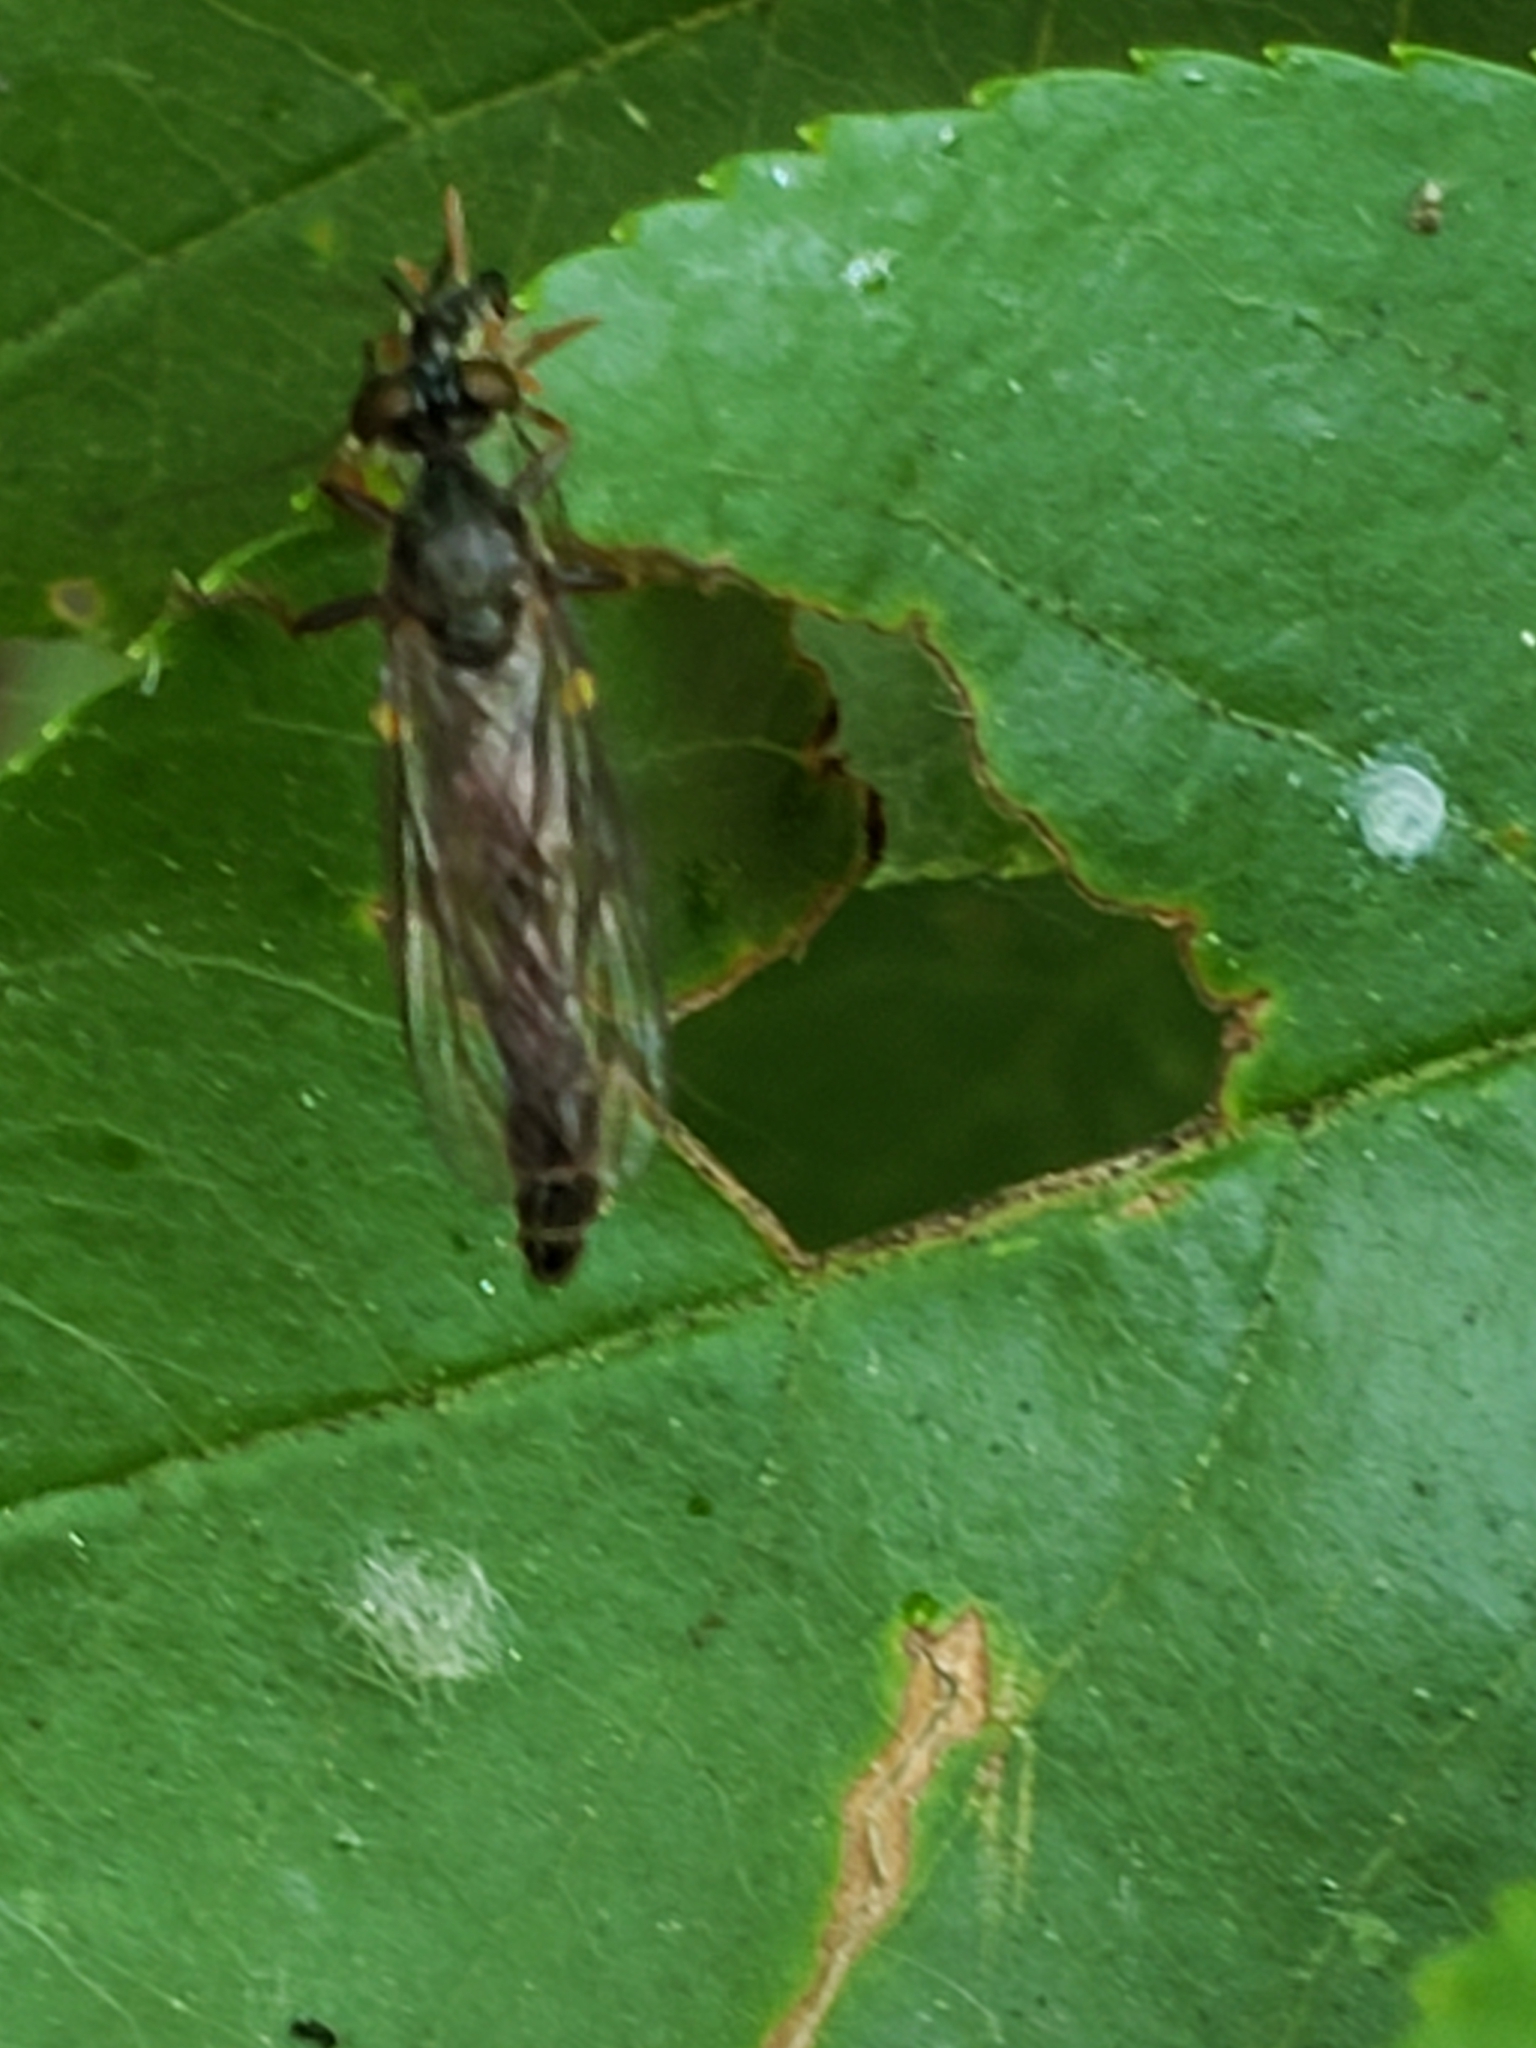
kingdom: Animalia
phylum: Arthropoda
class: Insecta
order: Diptera
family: Asilidae
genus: Dioctria
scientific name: Dioctria hyalipennis
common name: Stripe-legged robberfly
